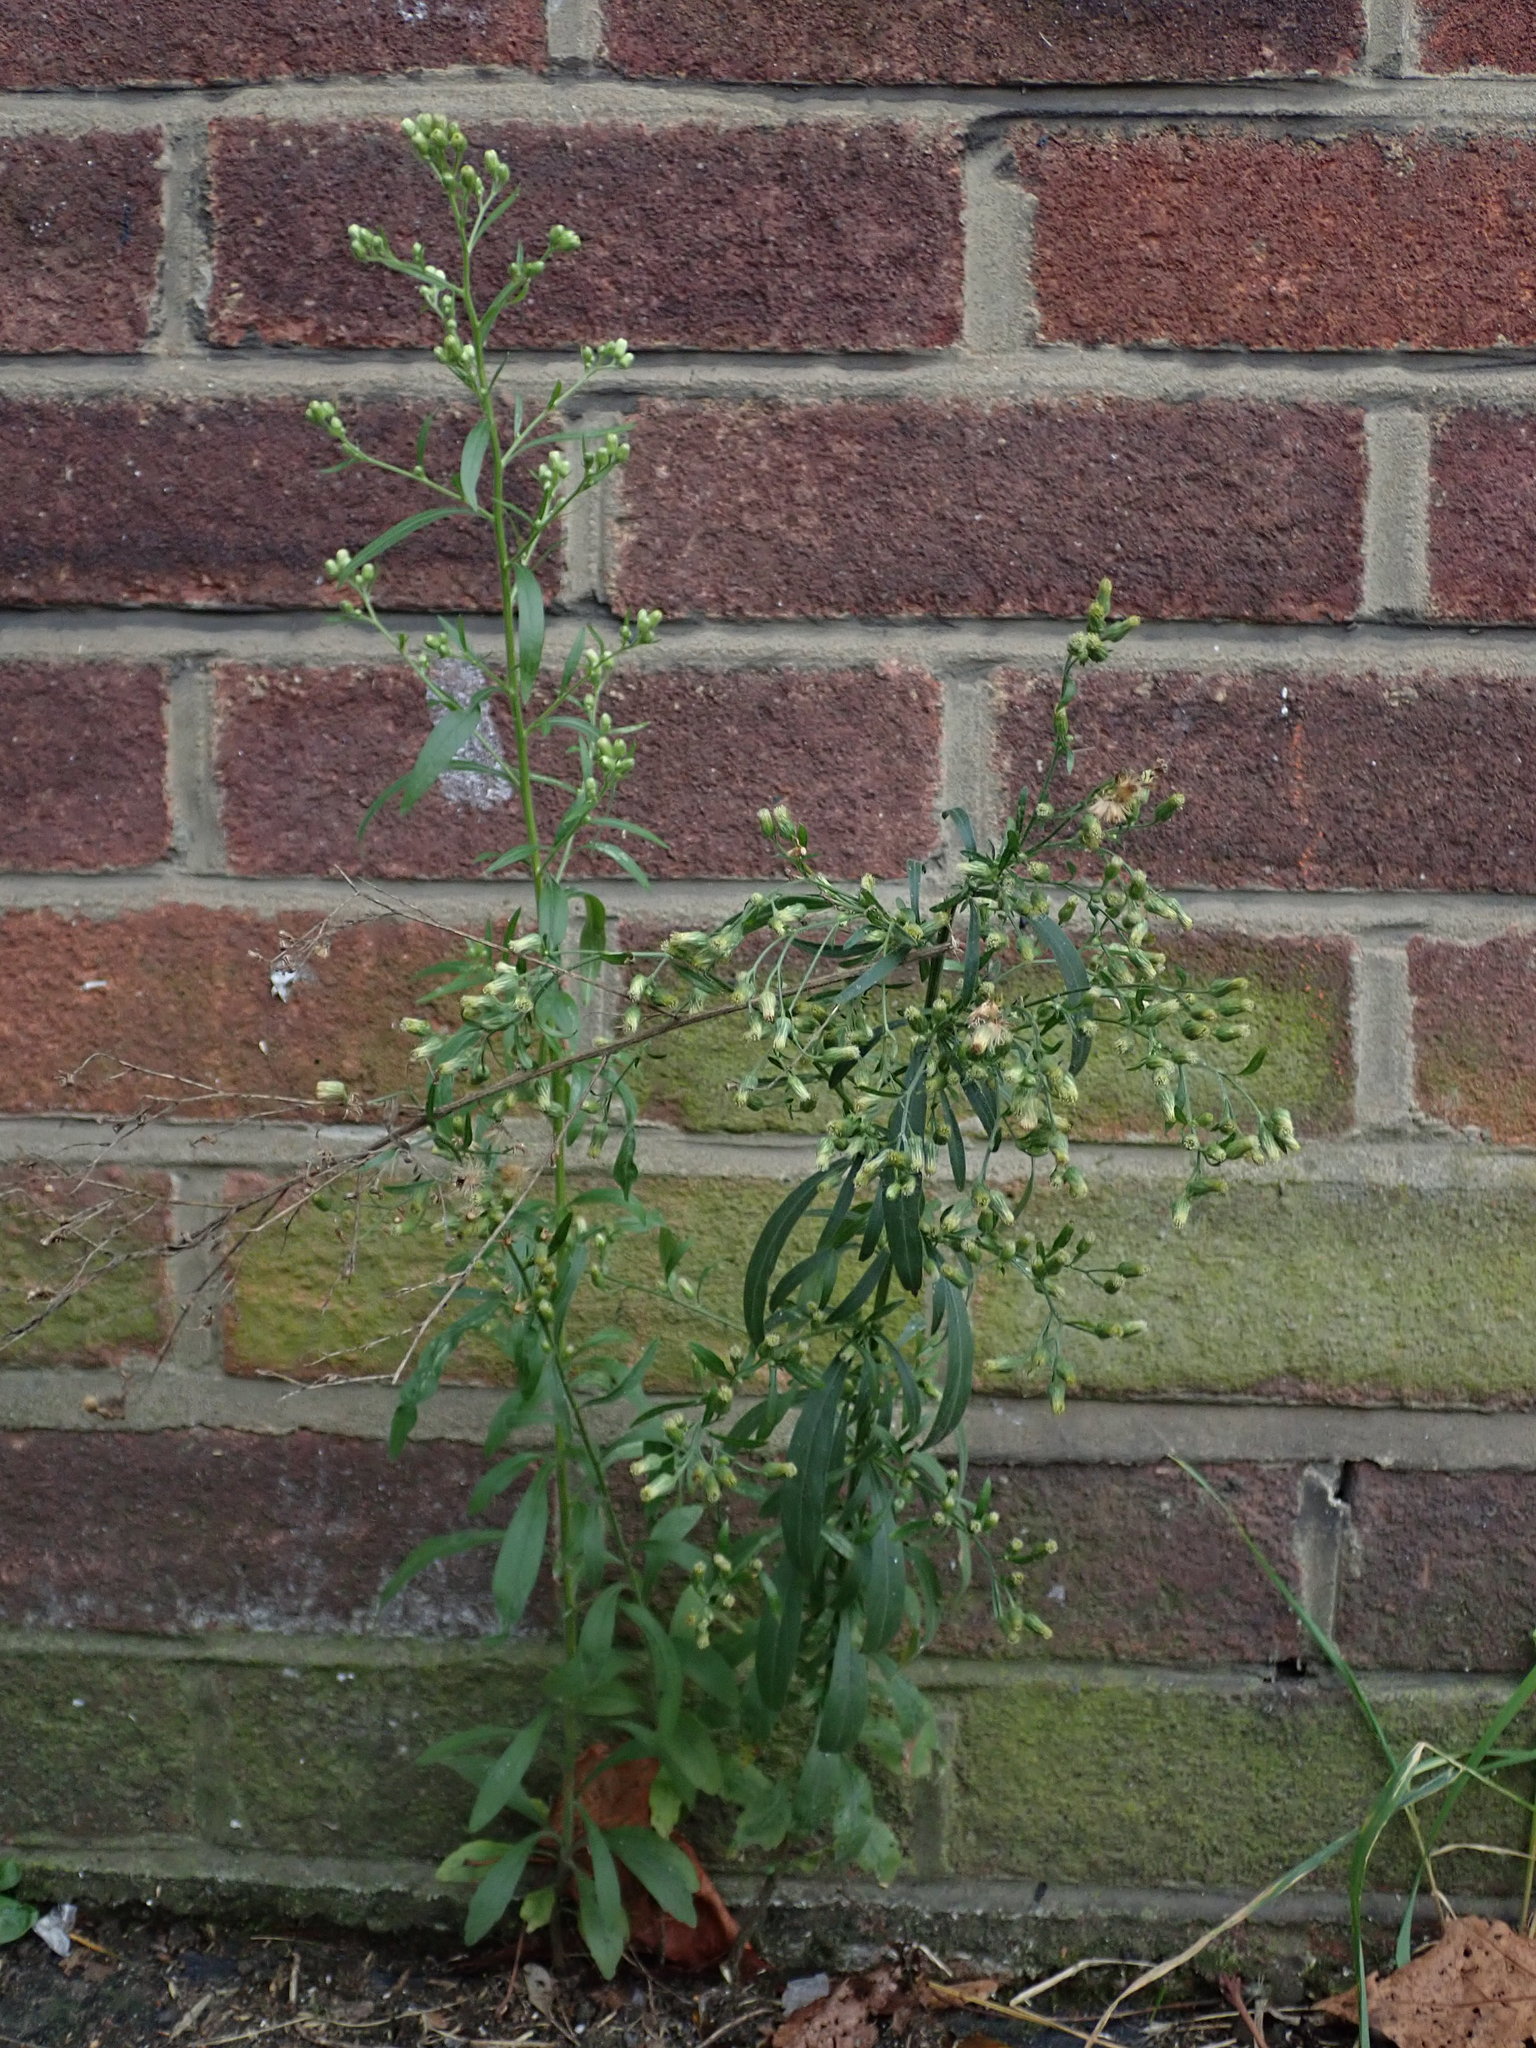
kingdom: Plantae
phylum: Tracheophyta
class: Magnoliopsida
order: Asterales
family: Asteraceae
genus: Erigeron
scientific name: Erigeron sumatrensis
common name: Daisy
